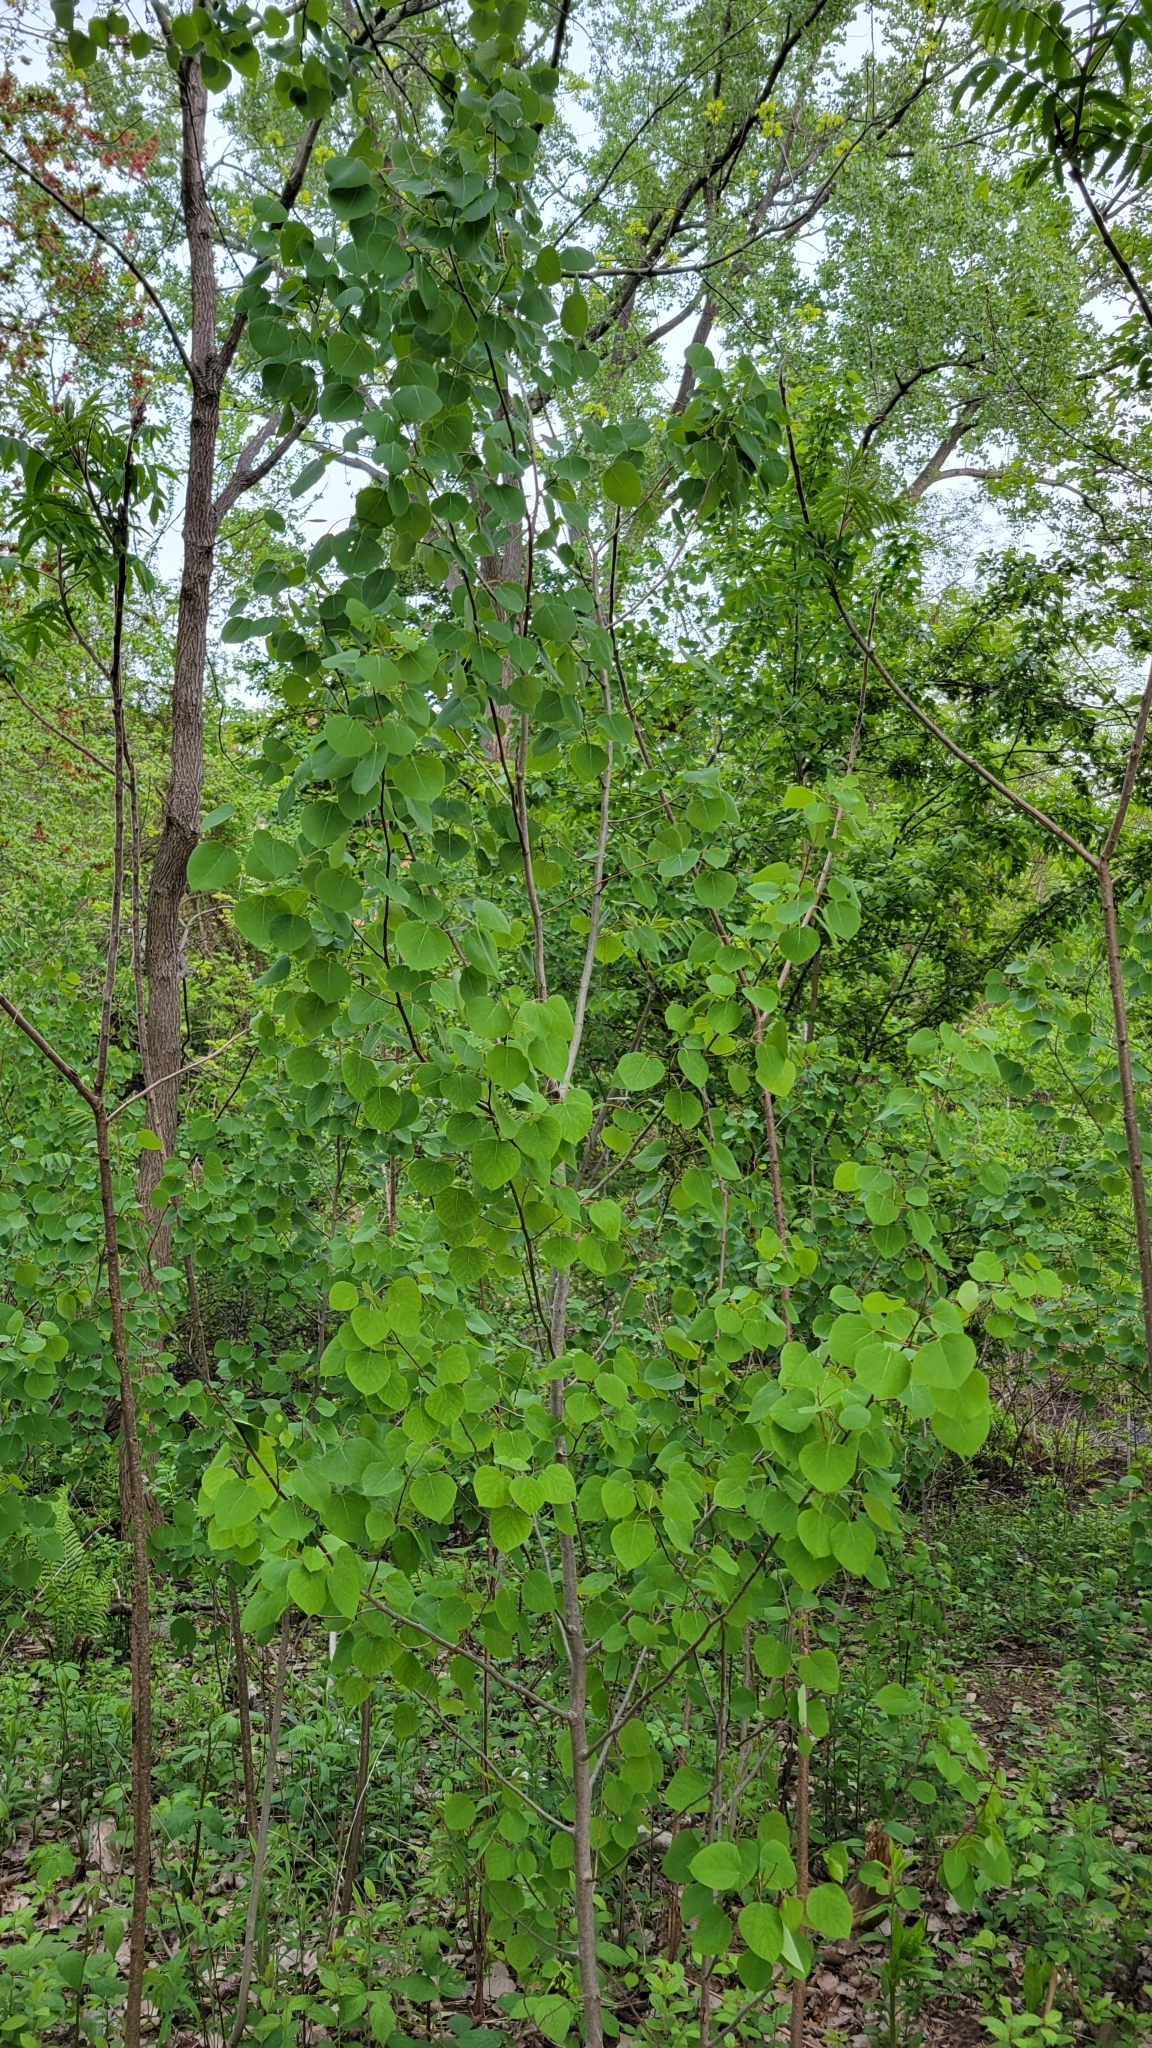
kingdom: Plantae
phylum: Tracheophyta
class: Magnoliopsida
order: Malpighiales
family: Salicaceae
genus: Populus
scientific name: Populus tremuloides
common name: Quaking aspen
